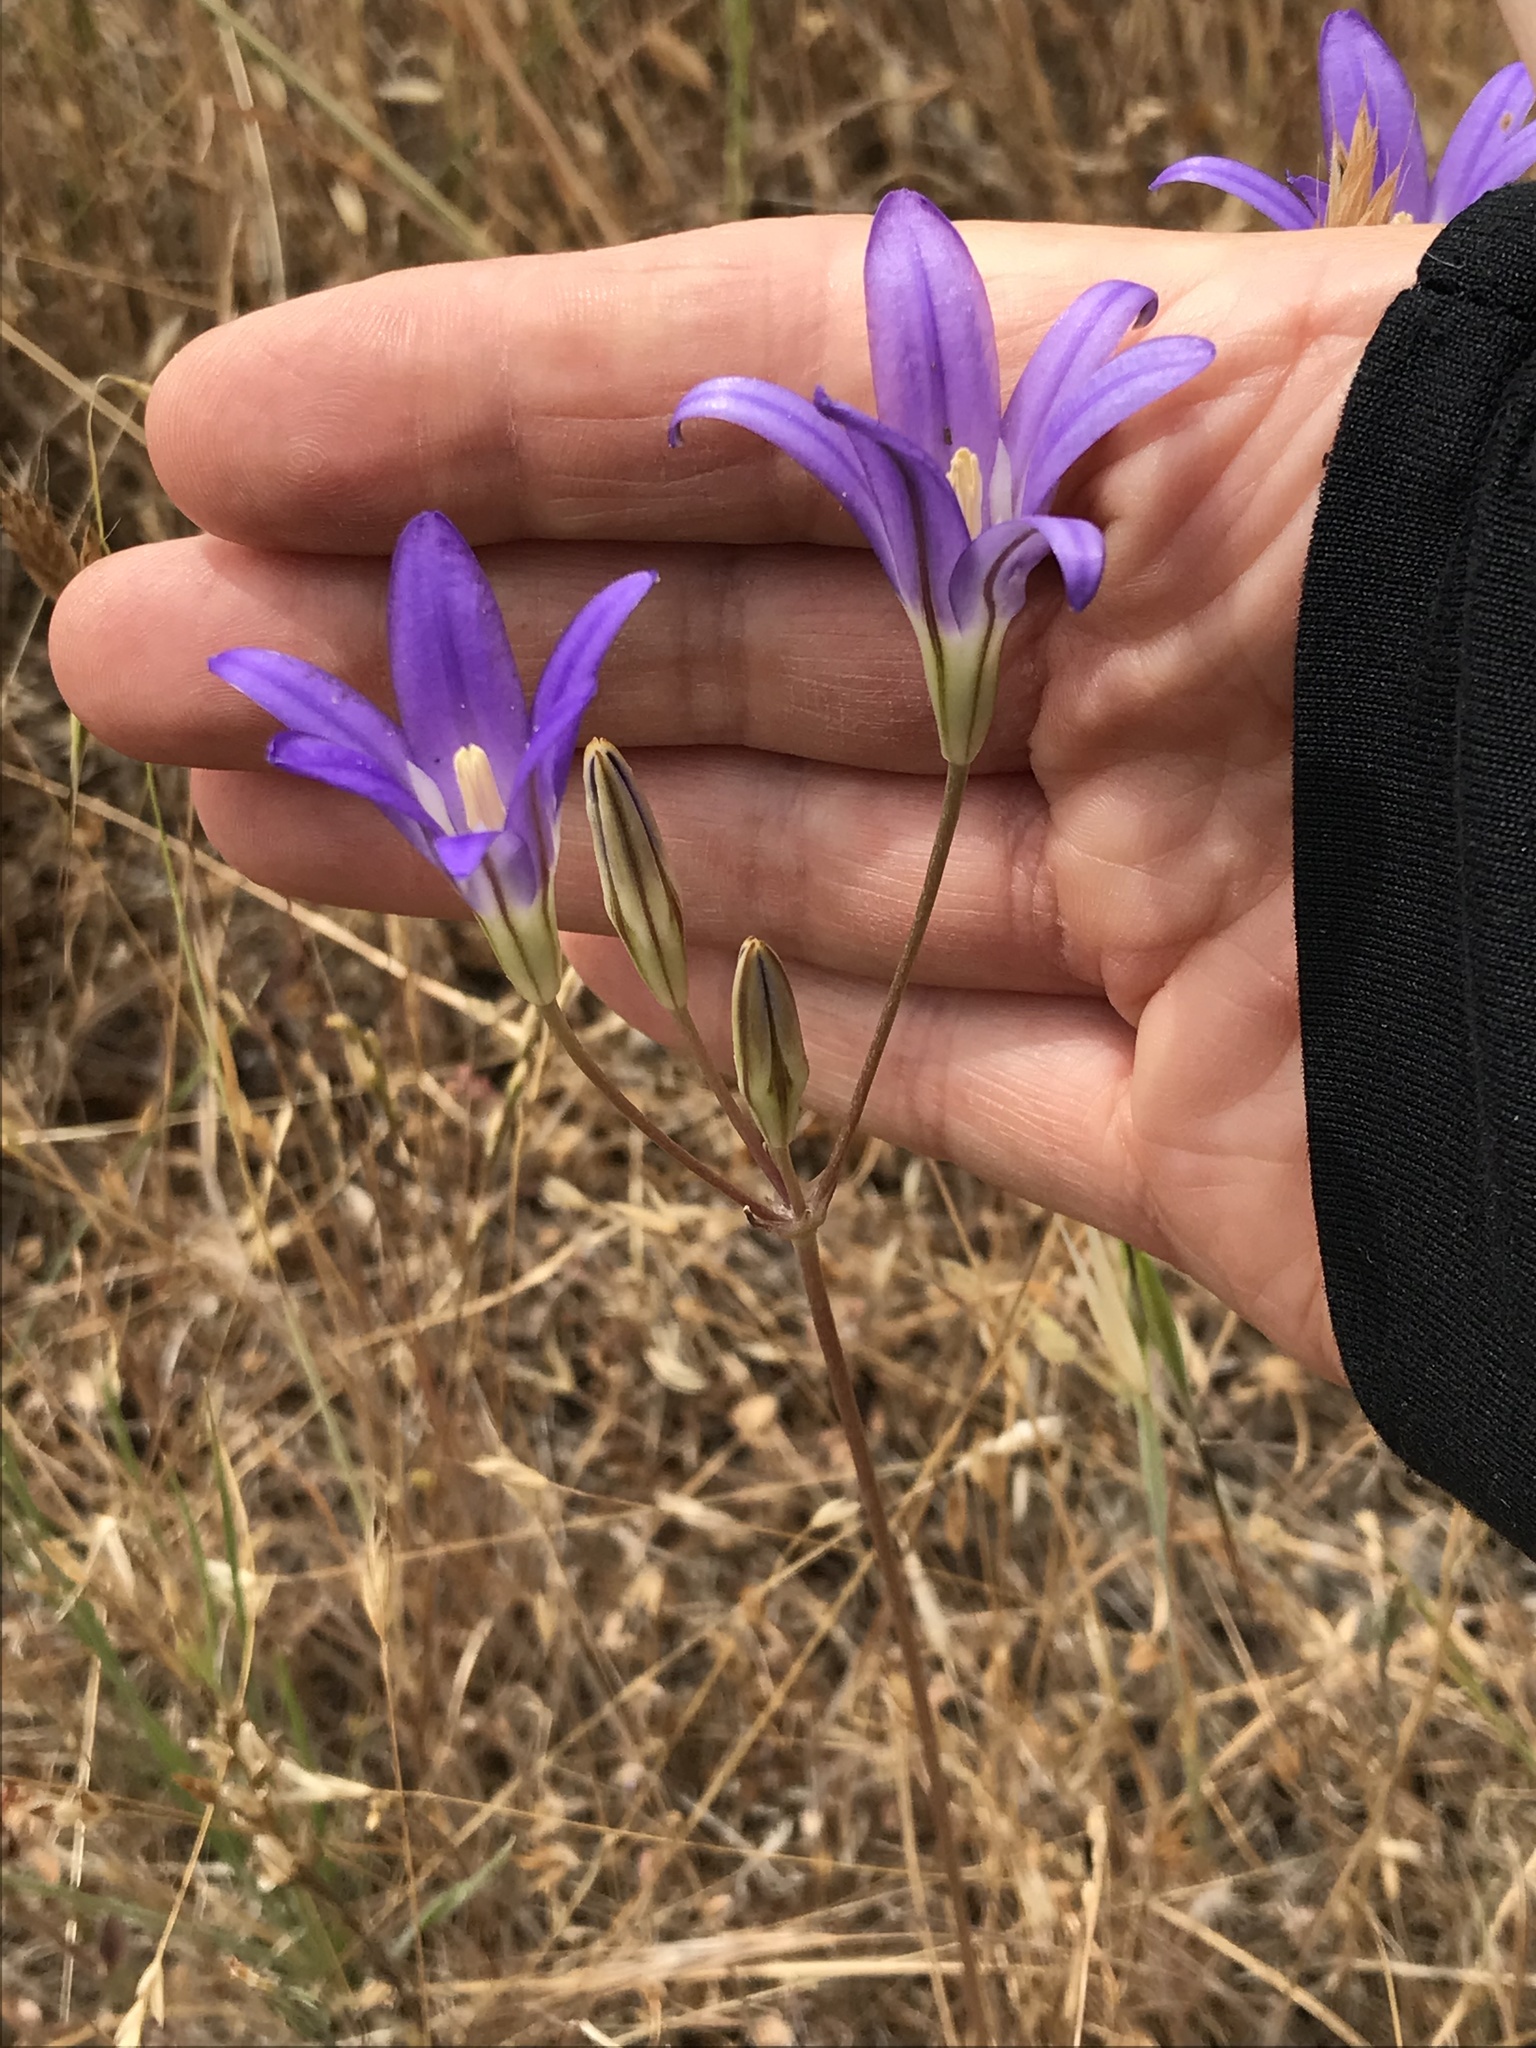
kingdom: Plantae
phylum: Tracheophyta
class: Liliopsida
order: Asparagales
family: Asparagaceae
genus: Brodiaea
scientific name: Brodiaea elegans
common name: Elegant cluster-lily
